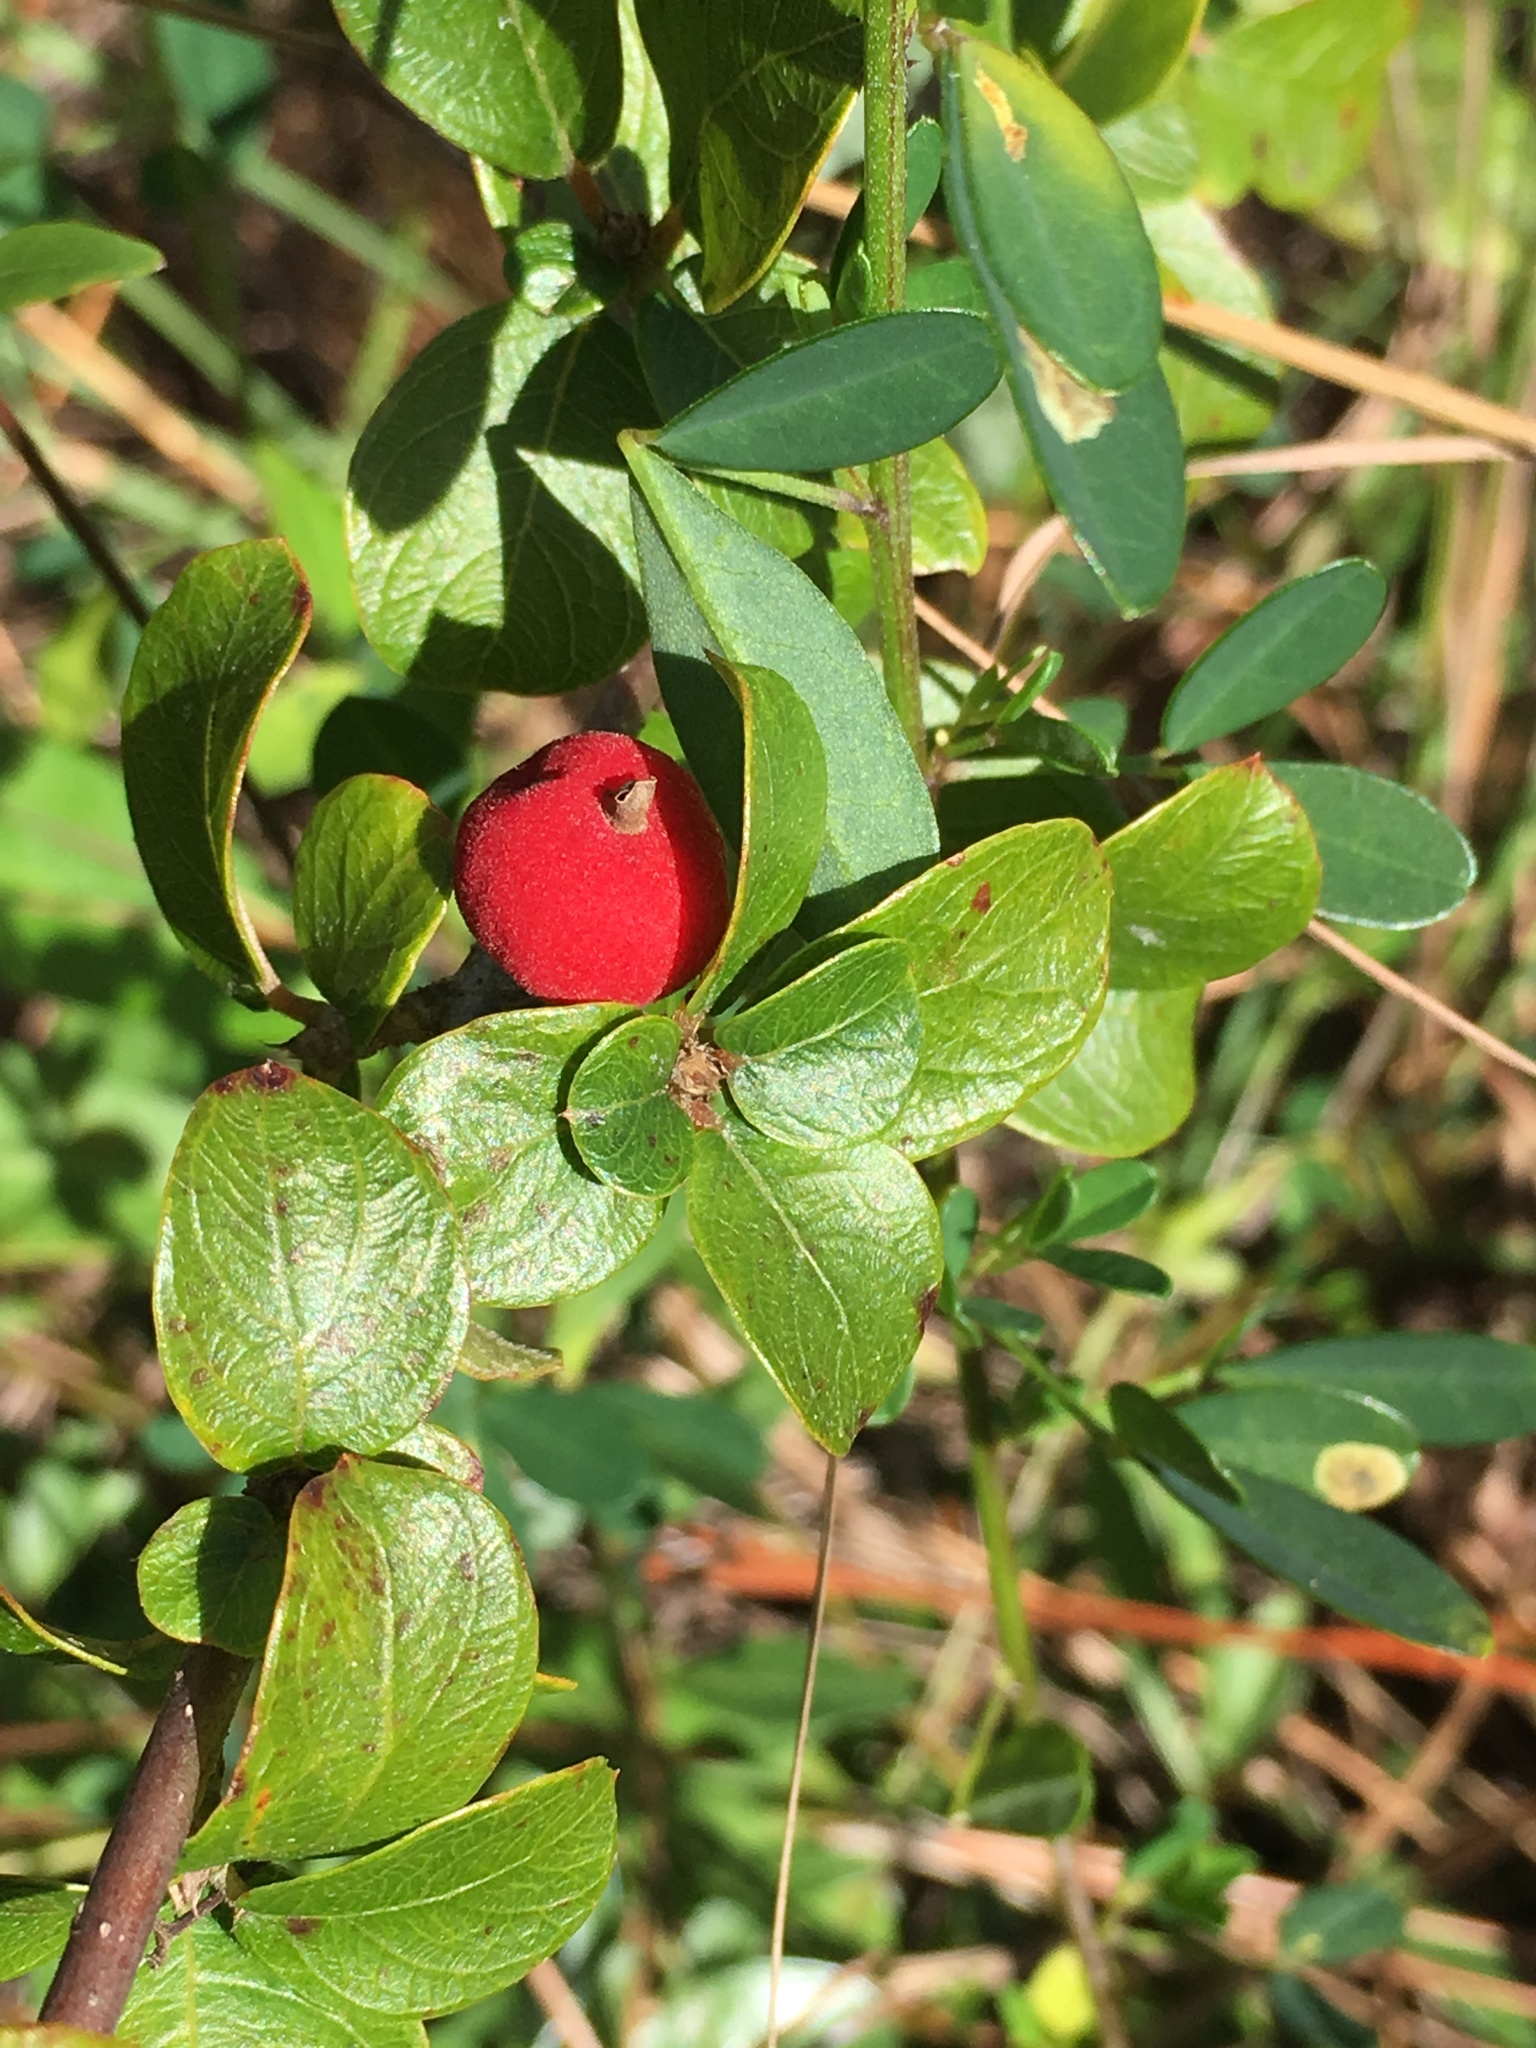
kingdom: Plantae
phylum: Tracheophyta
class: Magnoliopsida
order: Gentianales
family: Rubiaceae
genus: Guettarda
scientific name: Guettarda elliptica
